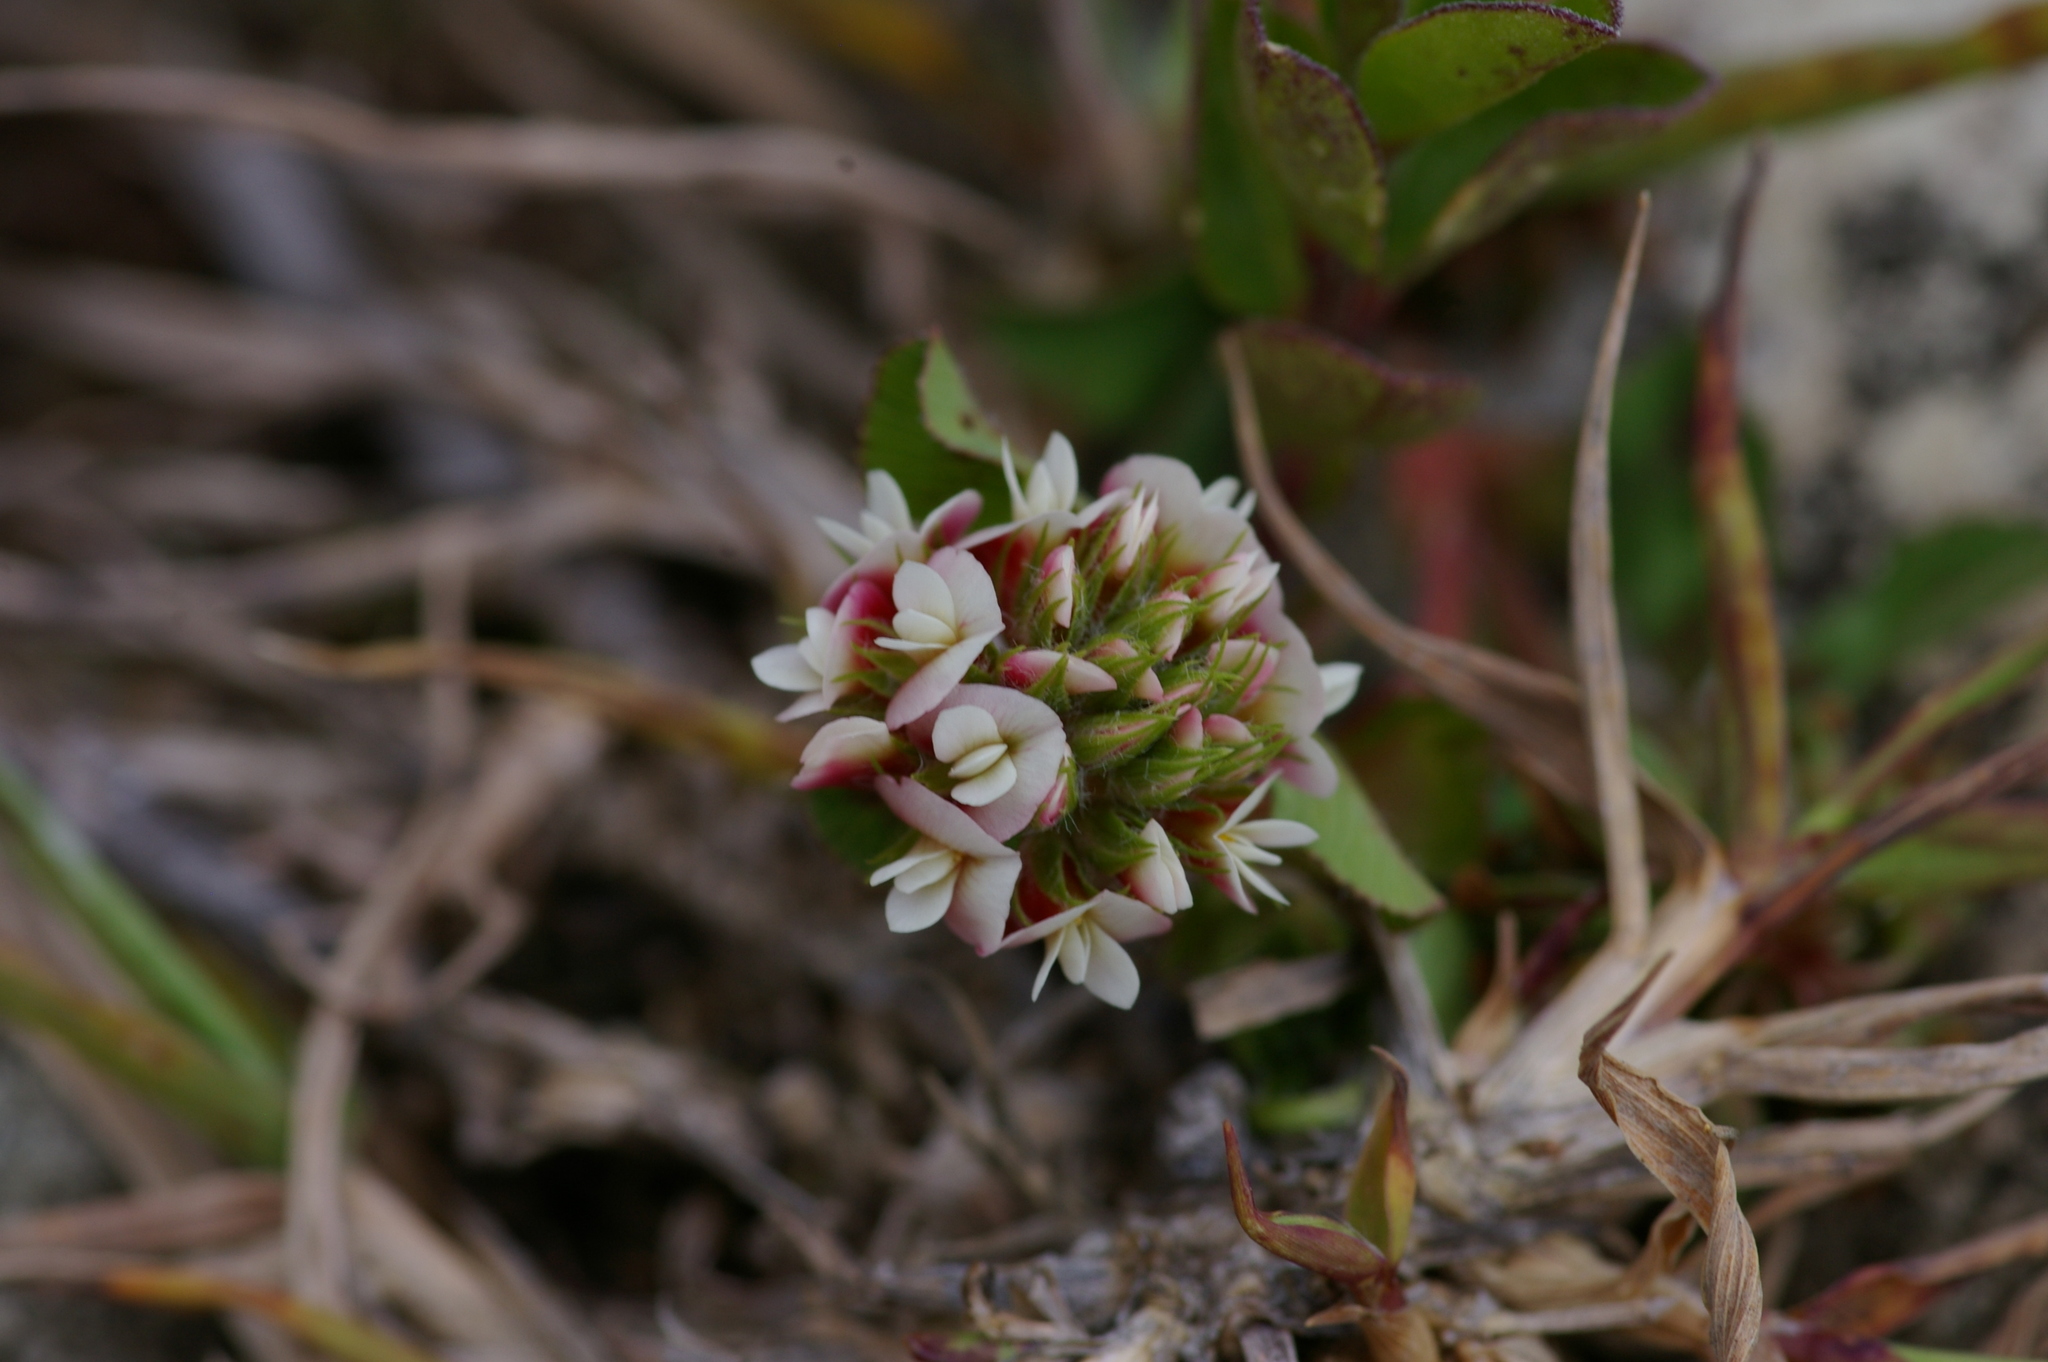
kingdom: Plantae
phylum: Tracheophyta
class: Magnoliopsida
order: Fabales
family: Fabaceae
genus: Trifolium
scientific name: Trifolium amabile
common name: Aztec clover
